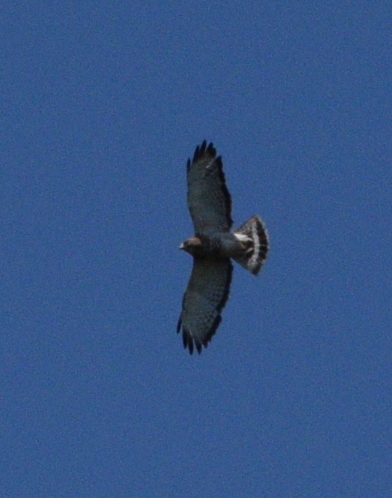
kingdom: Animalia
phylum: Chordata
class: Aves
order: Accipitriformes
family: Accipitridae
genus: Buteo
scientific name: Buteo platypterus
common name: Broad-winged hawk
